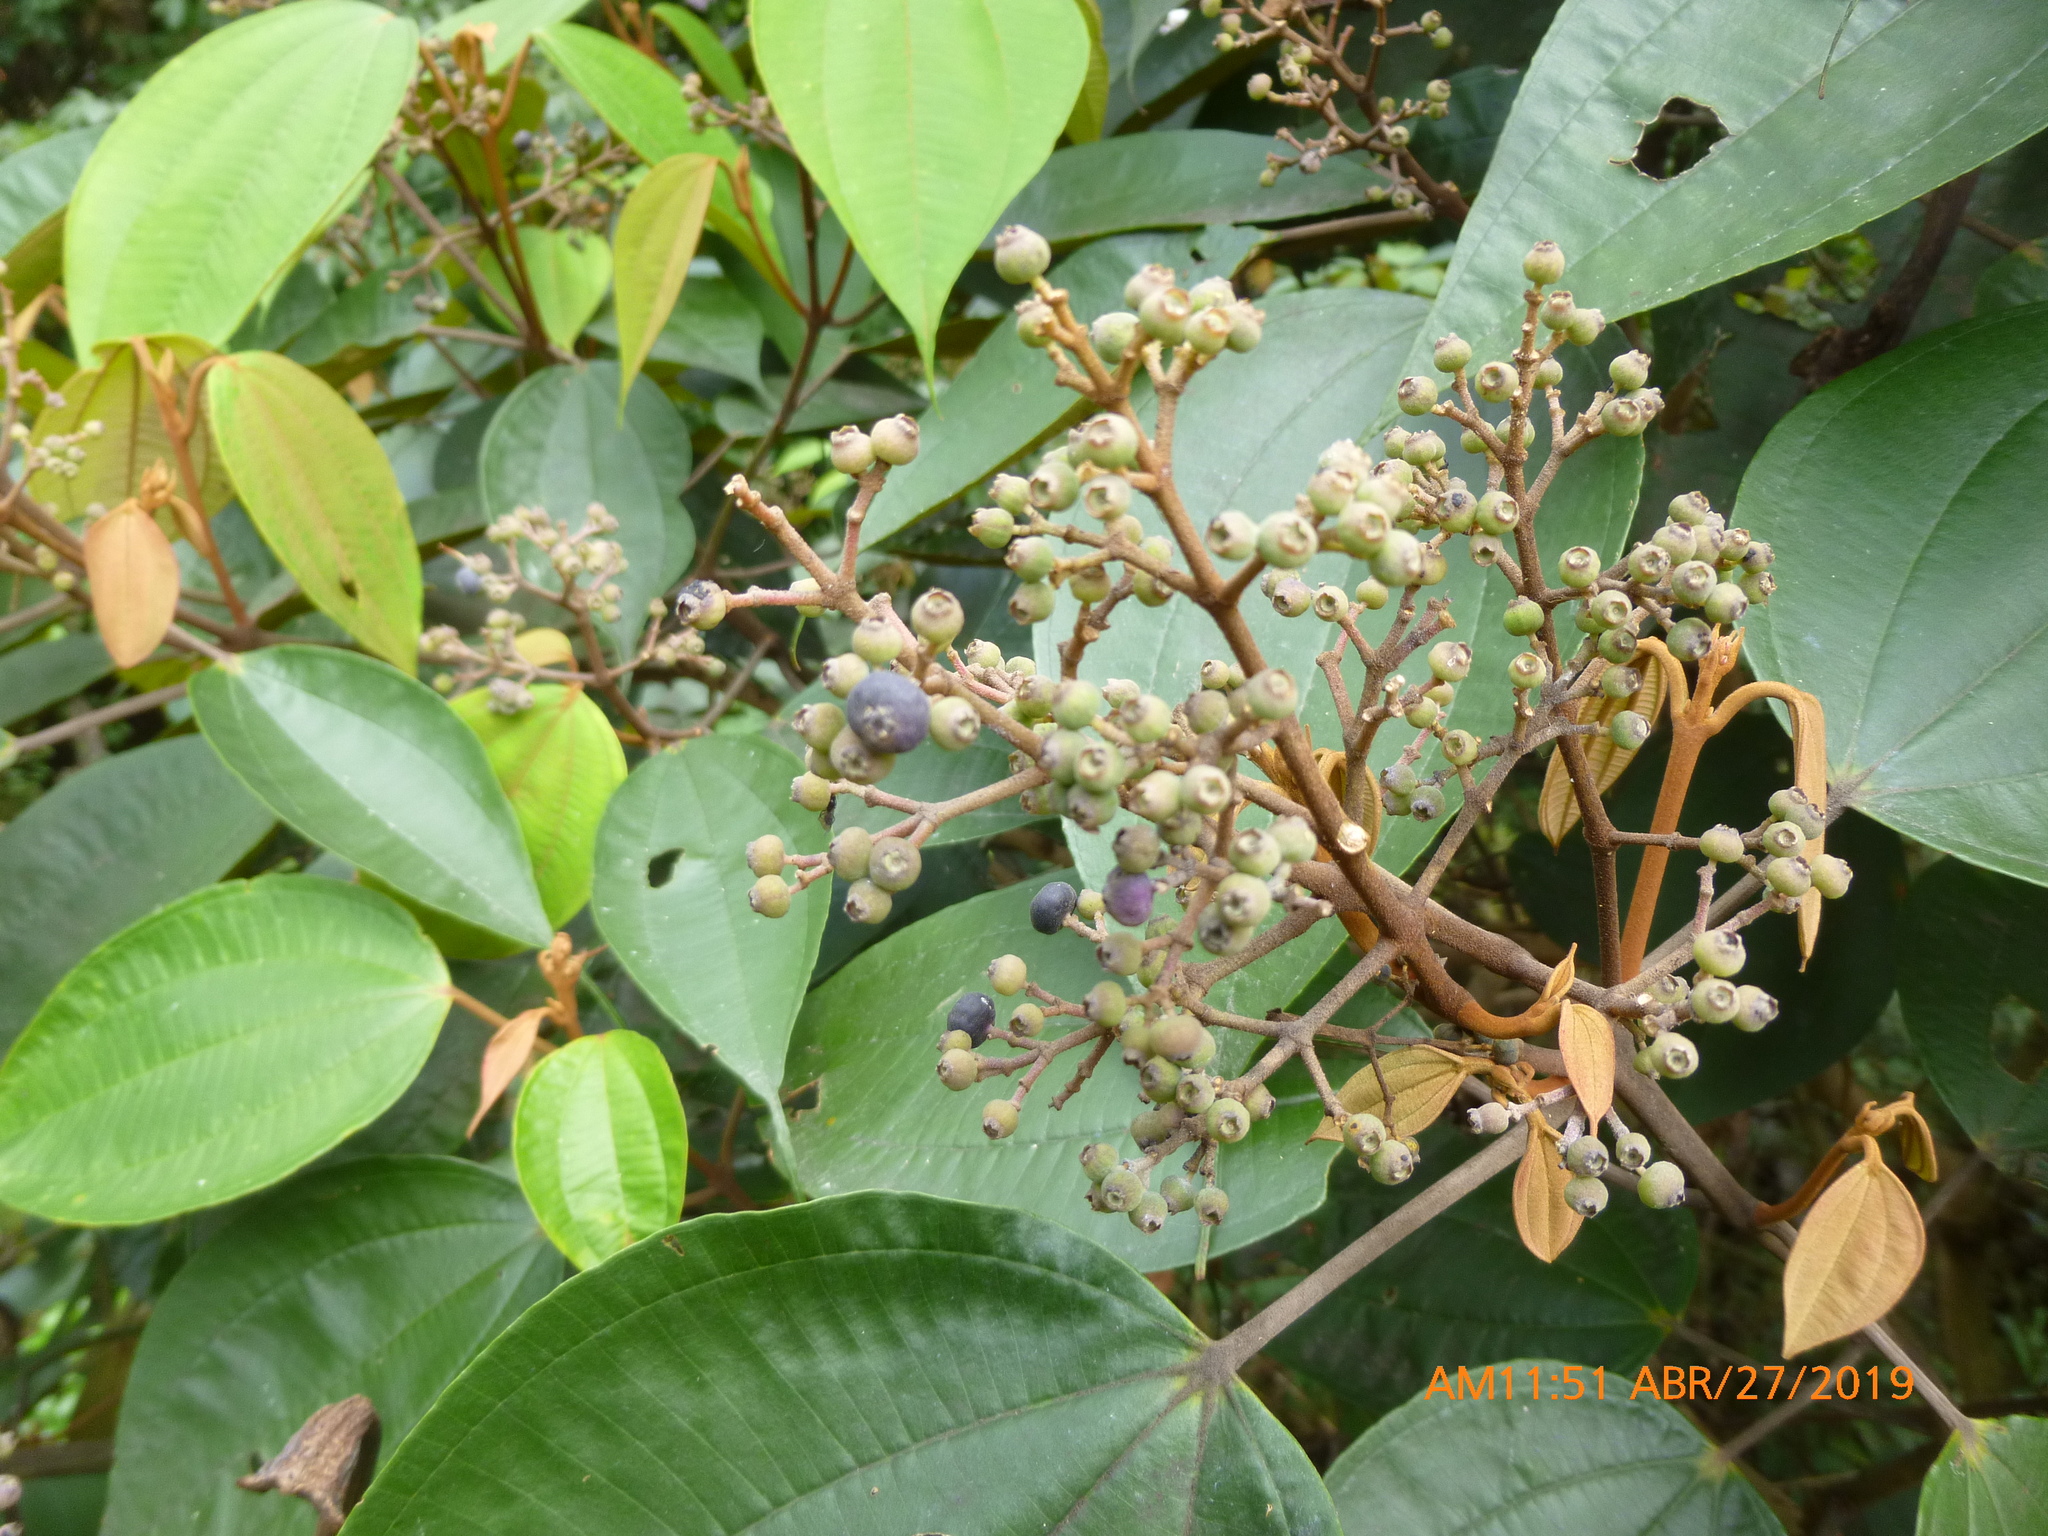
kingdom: Plantae
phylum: Tracheophyta
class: Magnoliopsida
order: Myrtales
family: Melastomataceae
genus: Miconia
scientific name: Miconia caudata
